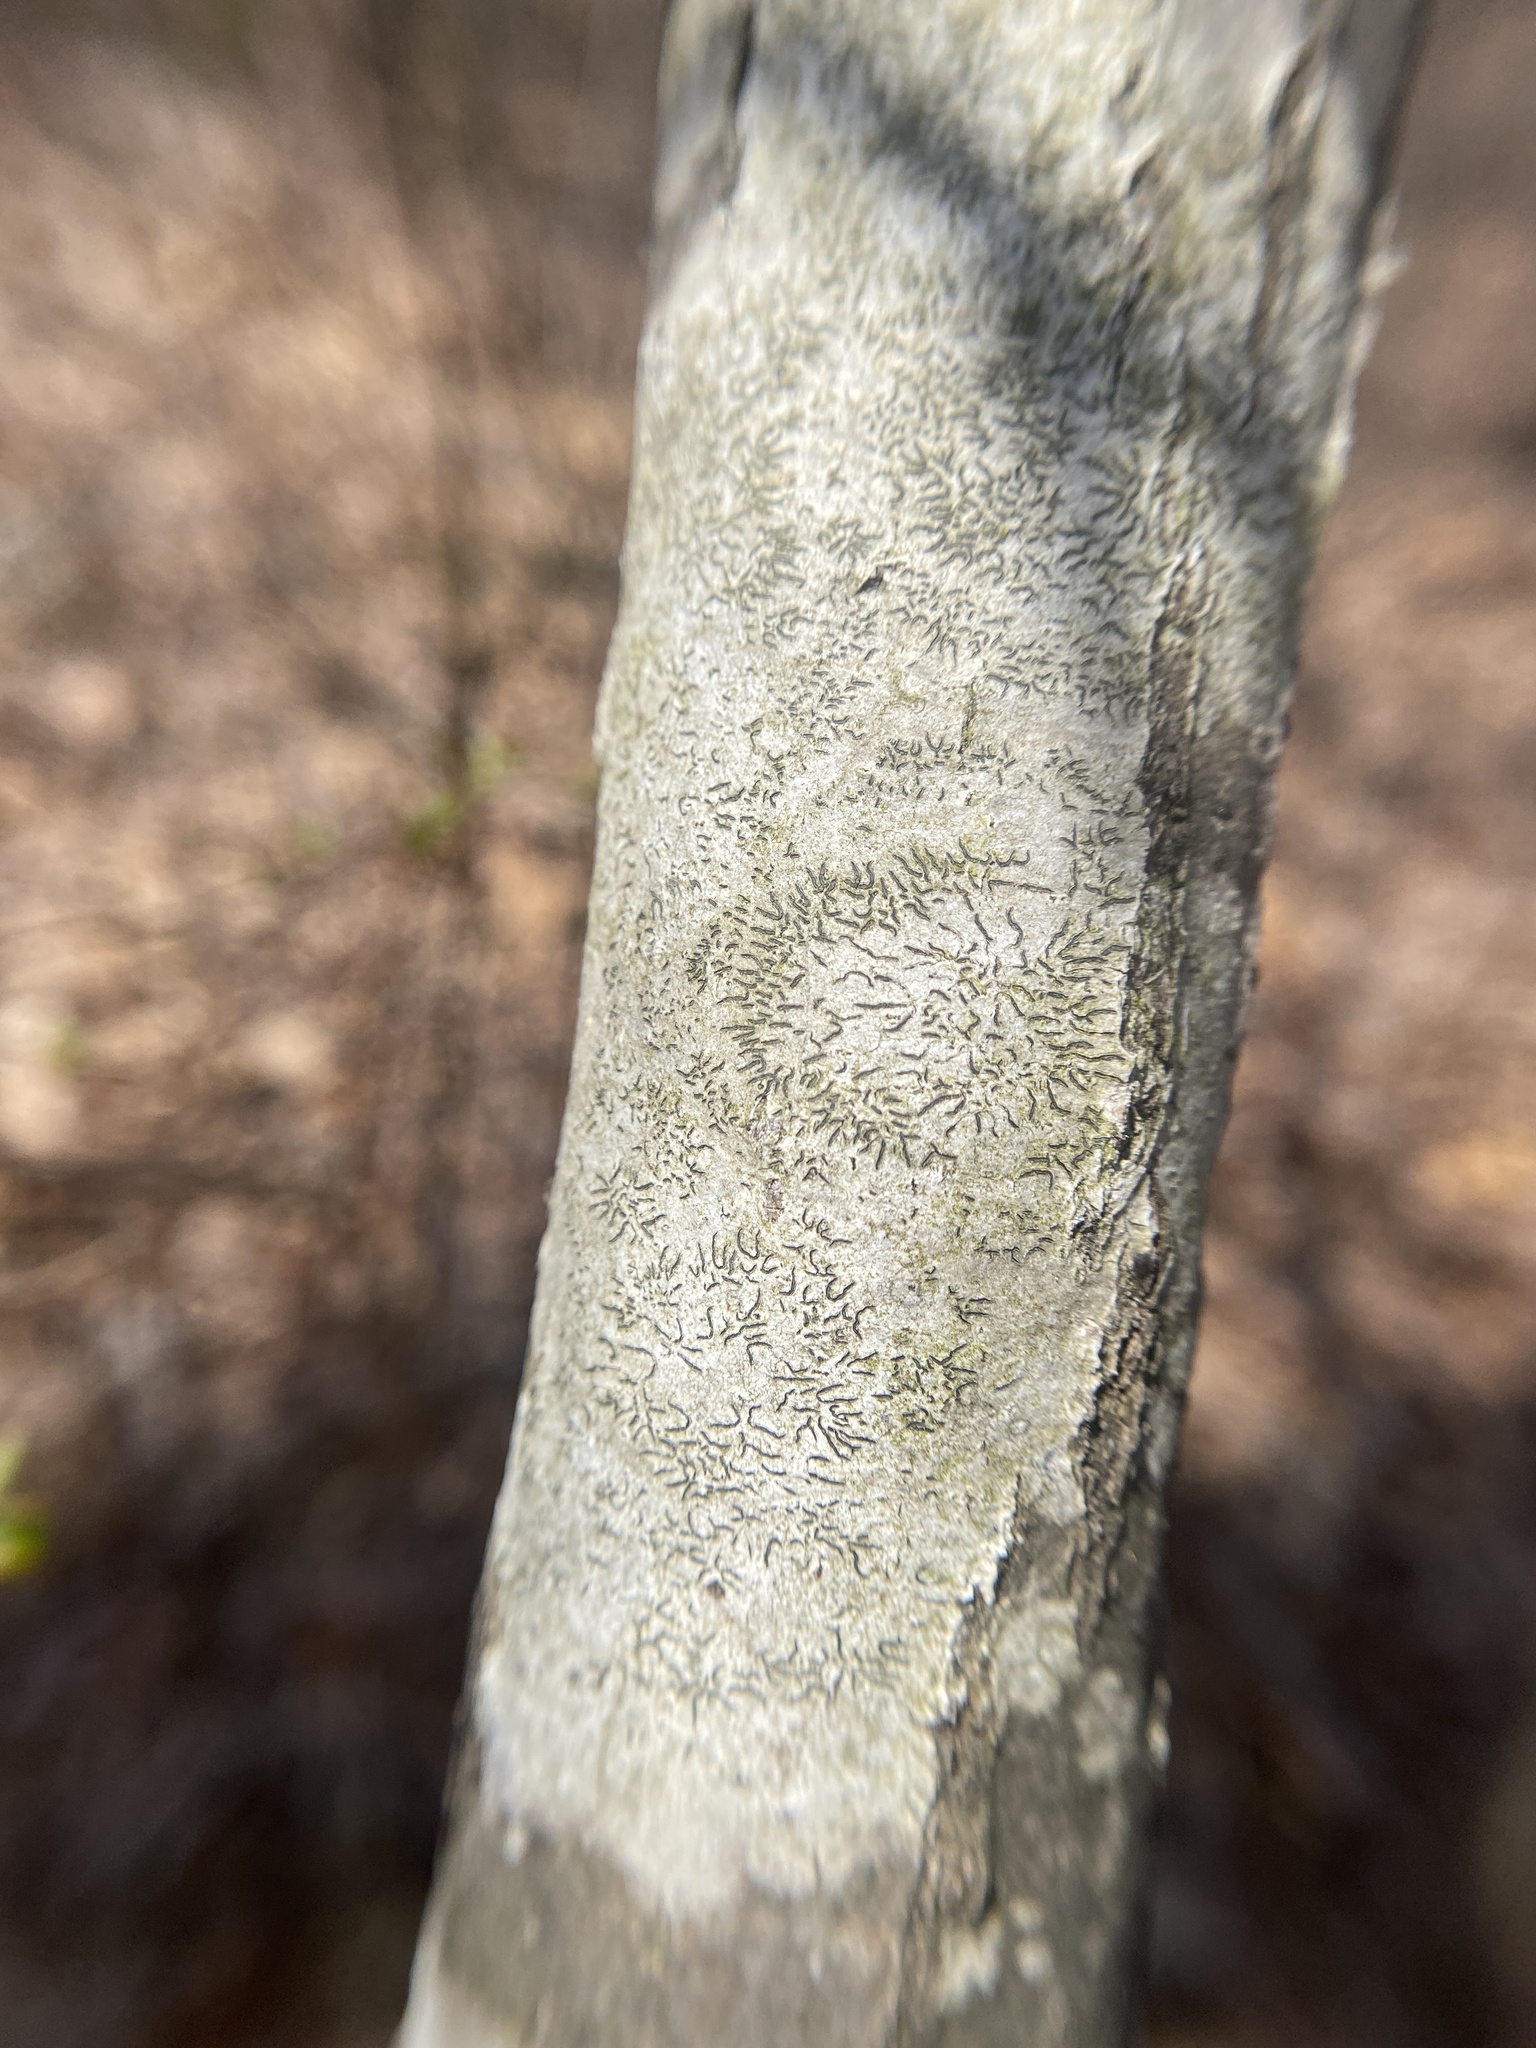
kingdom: Fungi
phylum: Ascomycota
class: Lecanoromycetes
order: Ostropales
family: Graphidaceae
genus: Graphis
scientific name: Graphis scripta
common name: Script lichen
